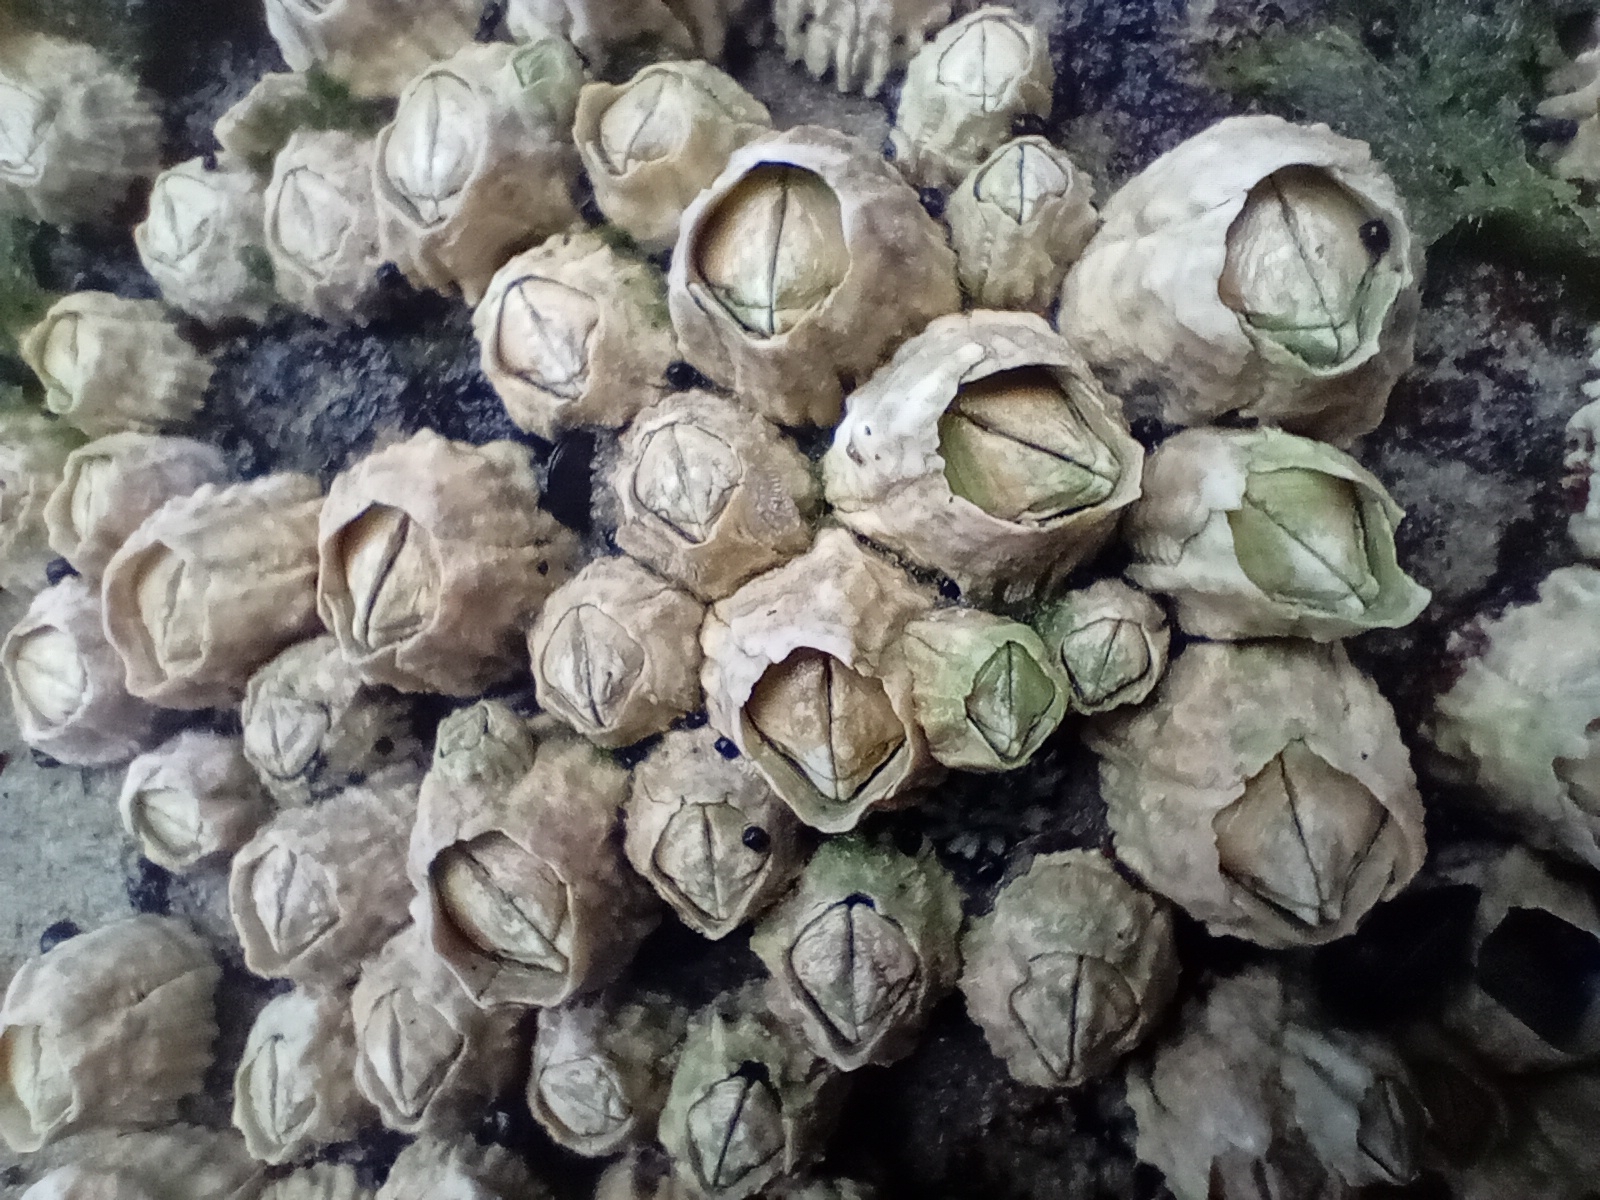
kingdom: Animalia
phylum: Arthropoda
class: Maxillopoda
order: Sessilia
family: Tetraclitidae
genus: Epopella
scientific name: Epopella plicata
